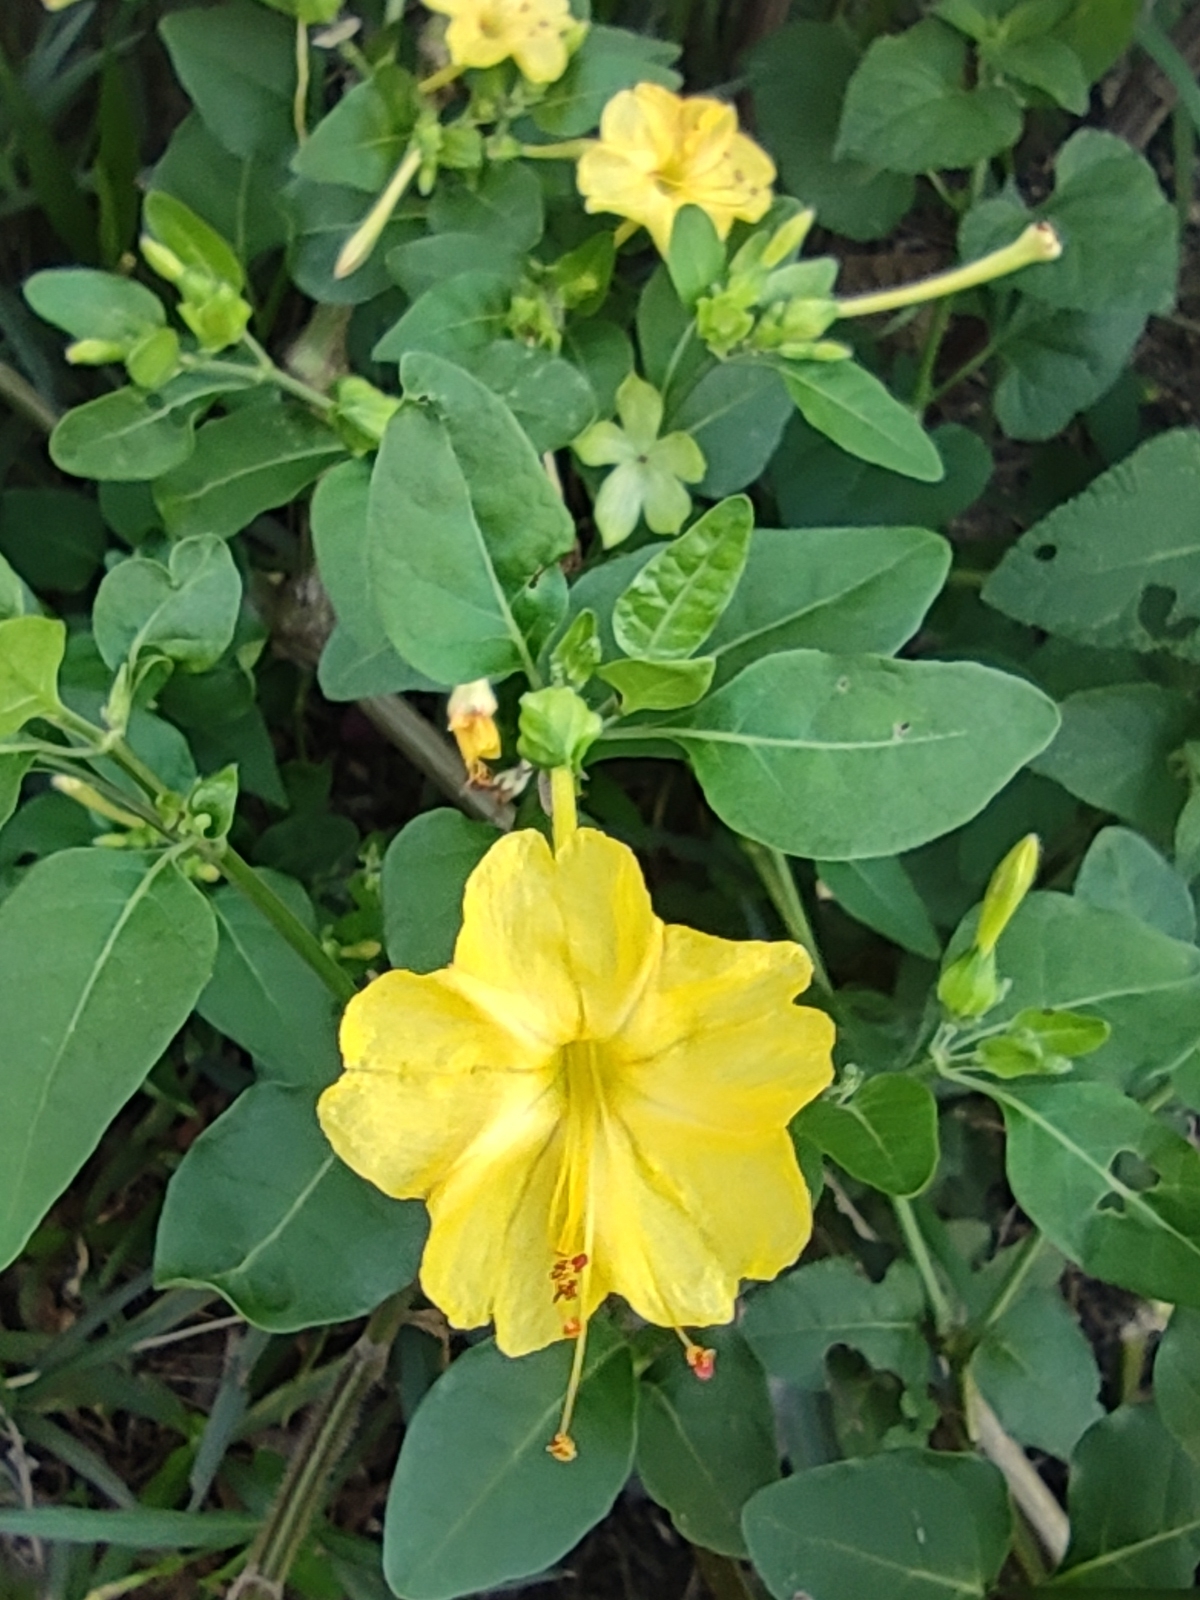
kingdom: Plantae
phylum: Tracheophyta
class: Magnoliopsida
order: Caryophyllales
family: Nyctaginaceae
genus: Mirabilis
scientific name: Mirabilis jalapa
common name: Marvel-of-peru
